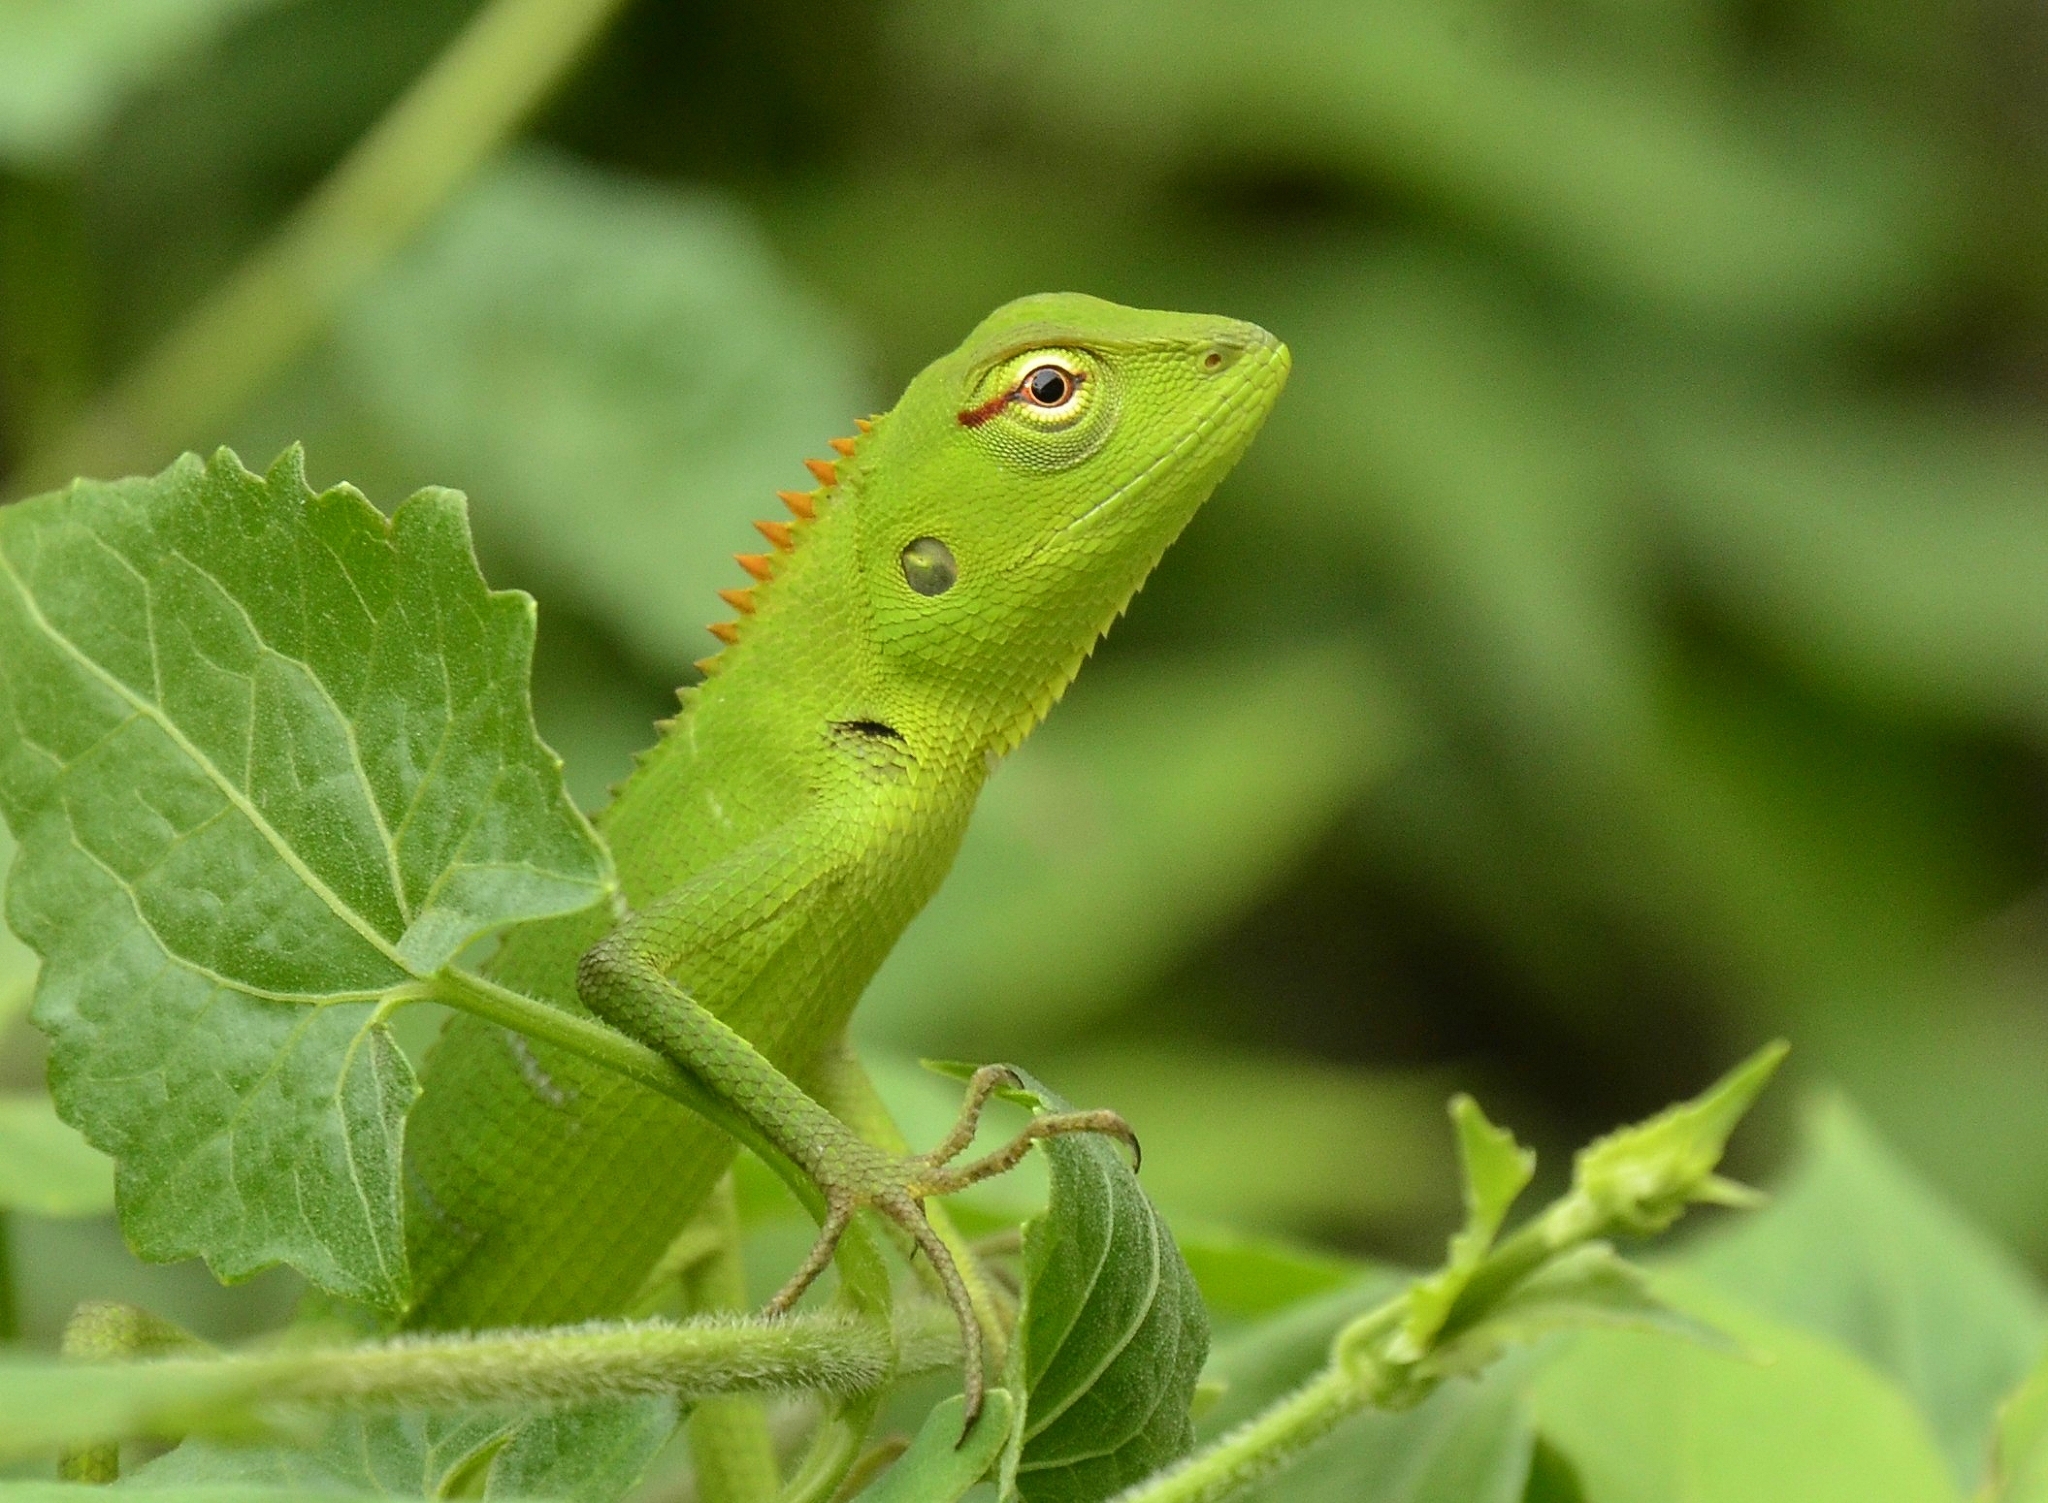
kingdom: Animalia
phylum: Chordata
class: Squamata
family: Agamidae
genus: Calotes
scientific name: Calotes calotes
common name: Common green forest lizard
